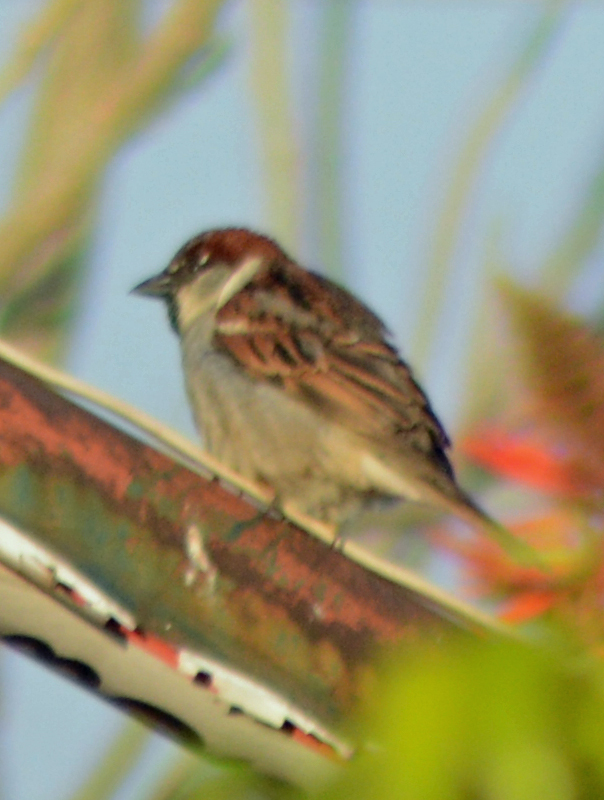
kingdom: Animalia
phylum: Chordata
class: Aves
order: Passeriformes
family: Passeridae
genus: Passer
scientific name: Passer domesticus
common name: House sparrow
